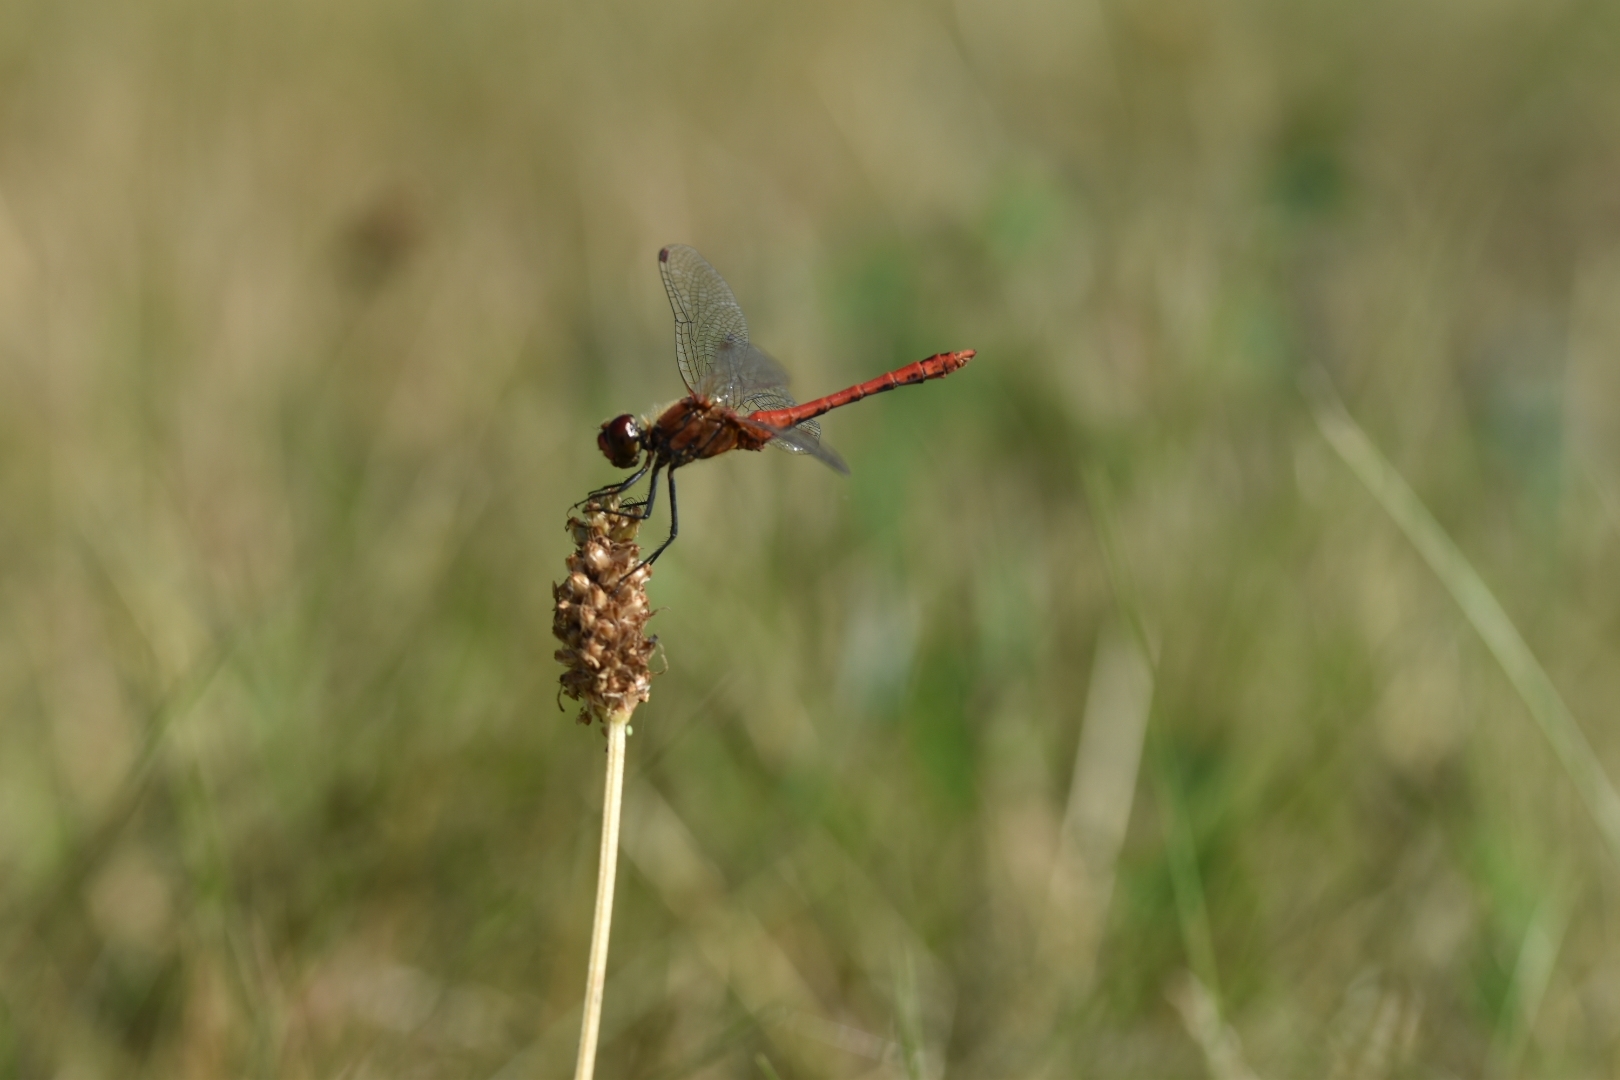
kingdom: Animalia
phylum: Arthropoda
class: Insecta
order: Odonata
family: Libellulidae
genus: Sympetrum
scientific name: Sympetrum sanguineum
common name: Ruddy darter
